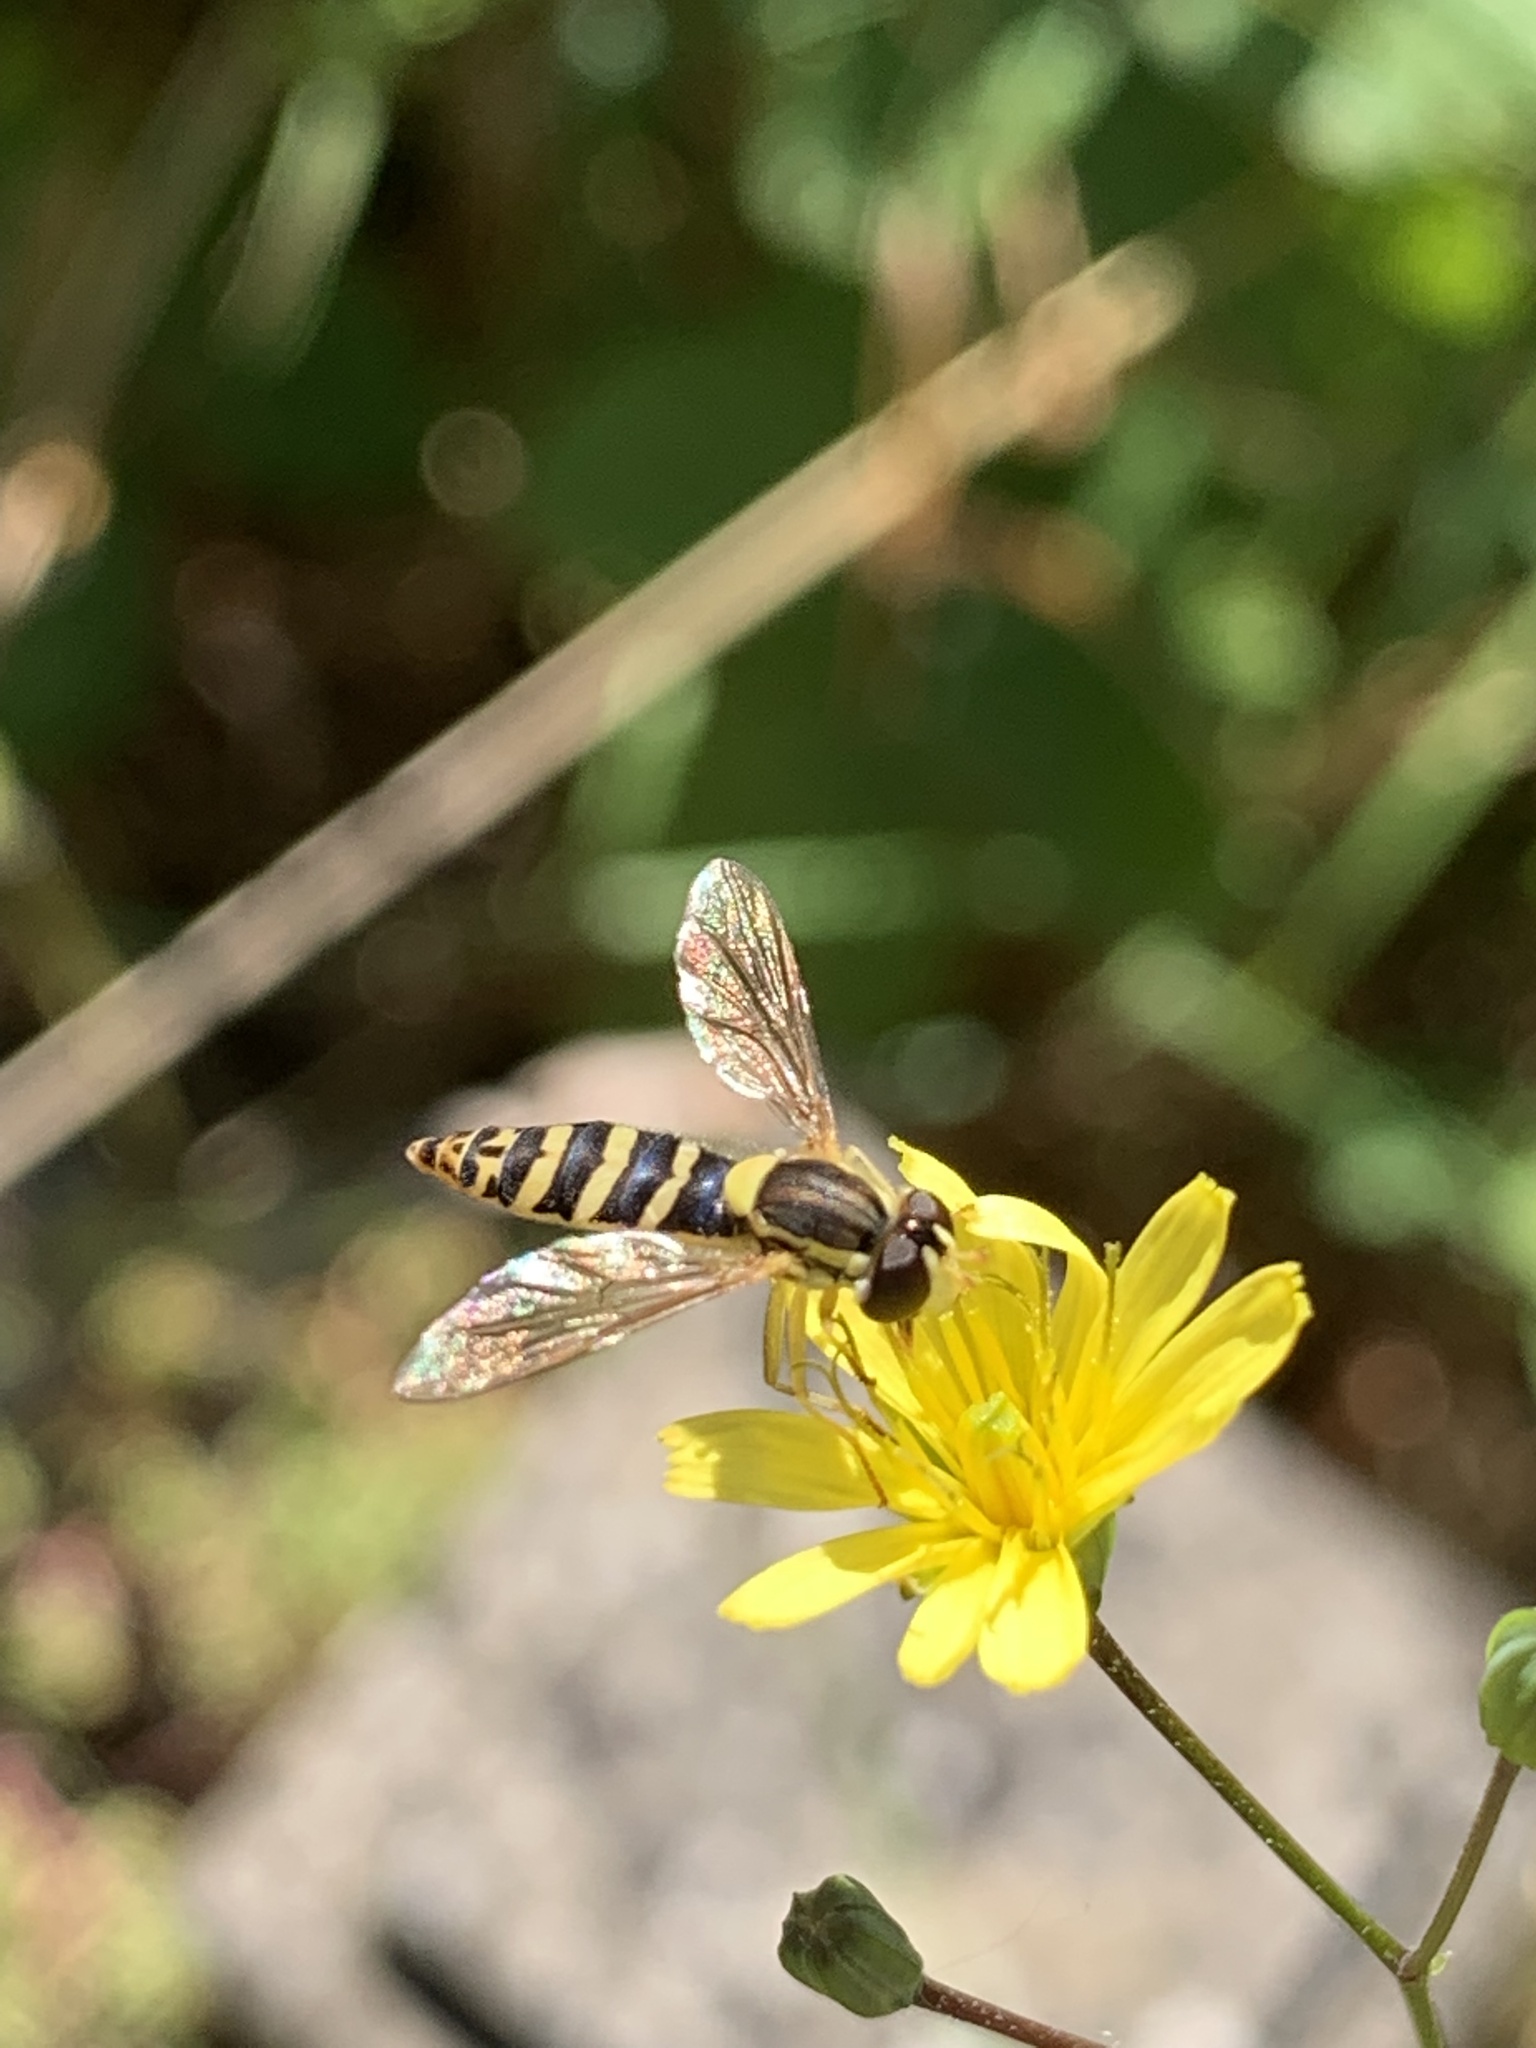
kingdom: Animalia
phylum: Arthropoda
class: Insecta
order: Diptera
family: Syrphidae
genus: Sphaerophoria
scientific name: Sphaerophoria
